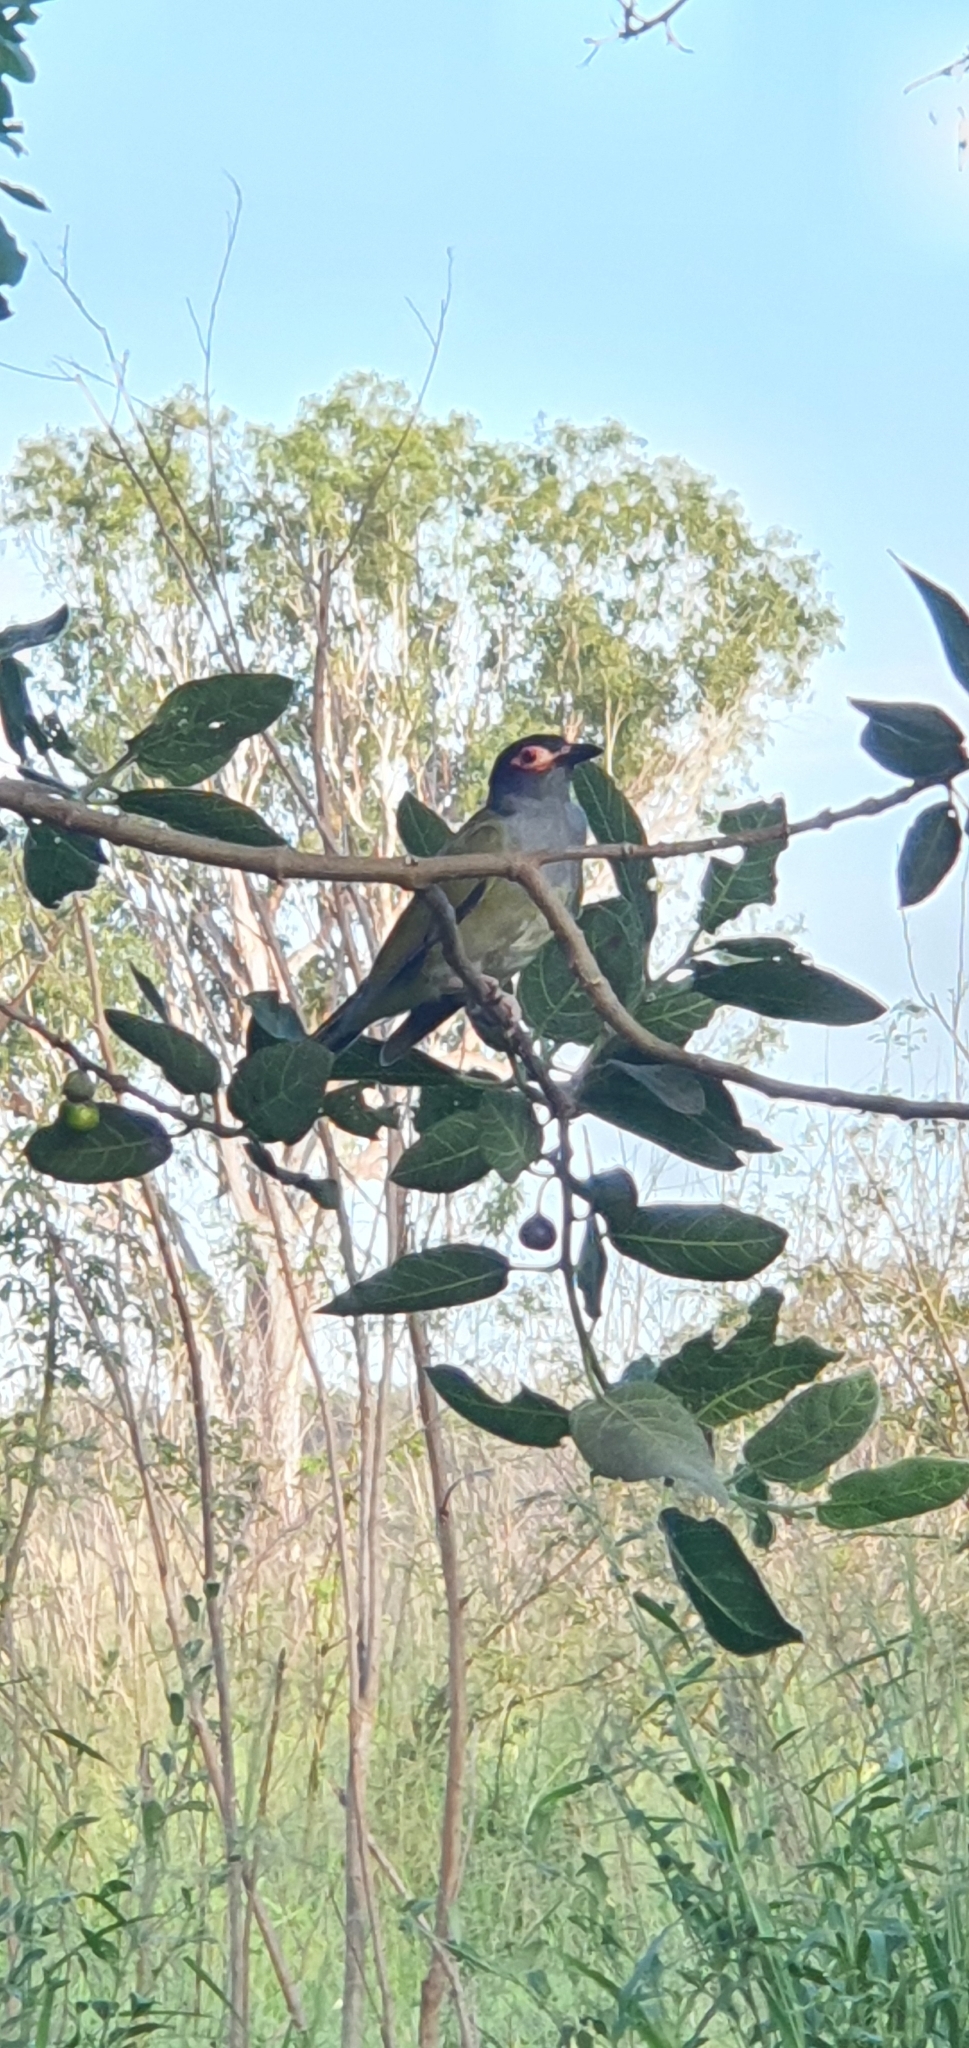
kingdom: Animalia
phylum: Chordata
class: Aves
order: Passeriformes
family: Oriolidae
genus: Sphecotheres
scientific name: Sphecotheres vieilloti
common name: Australasian figbird
